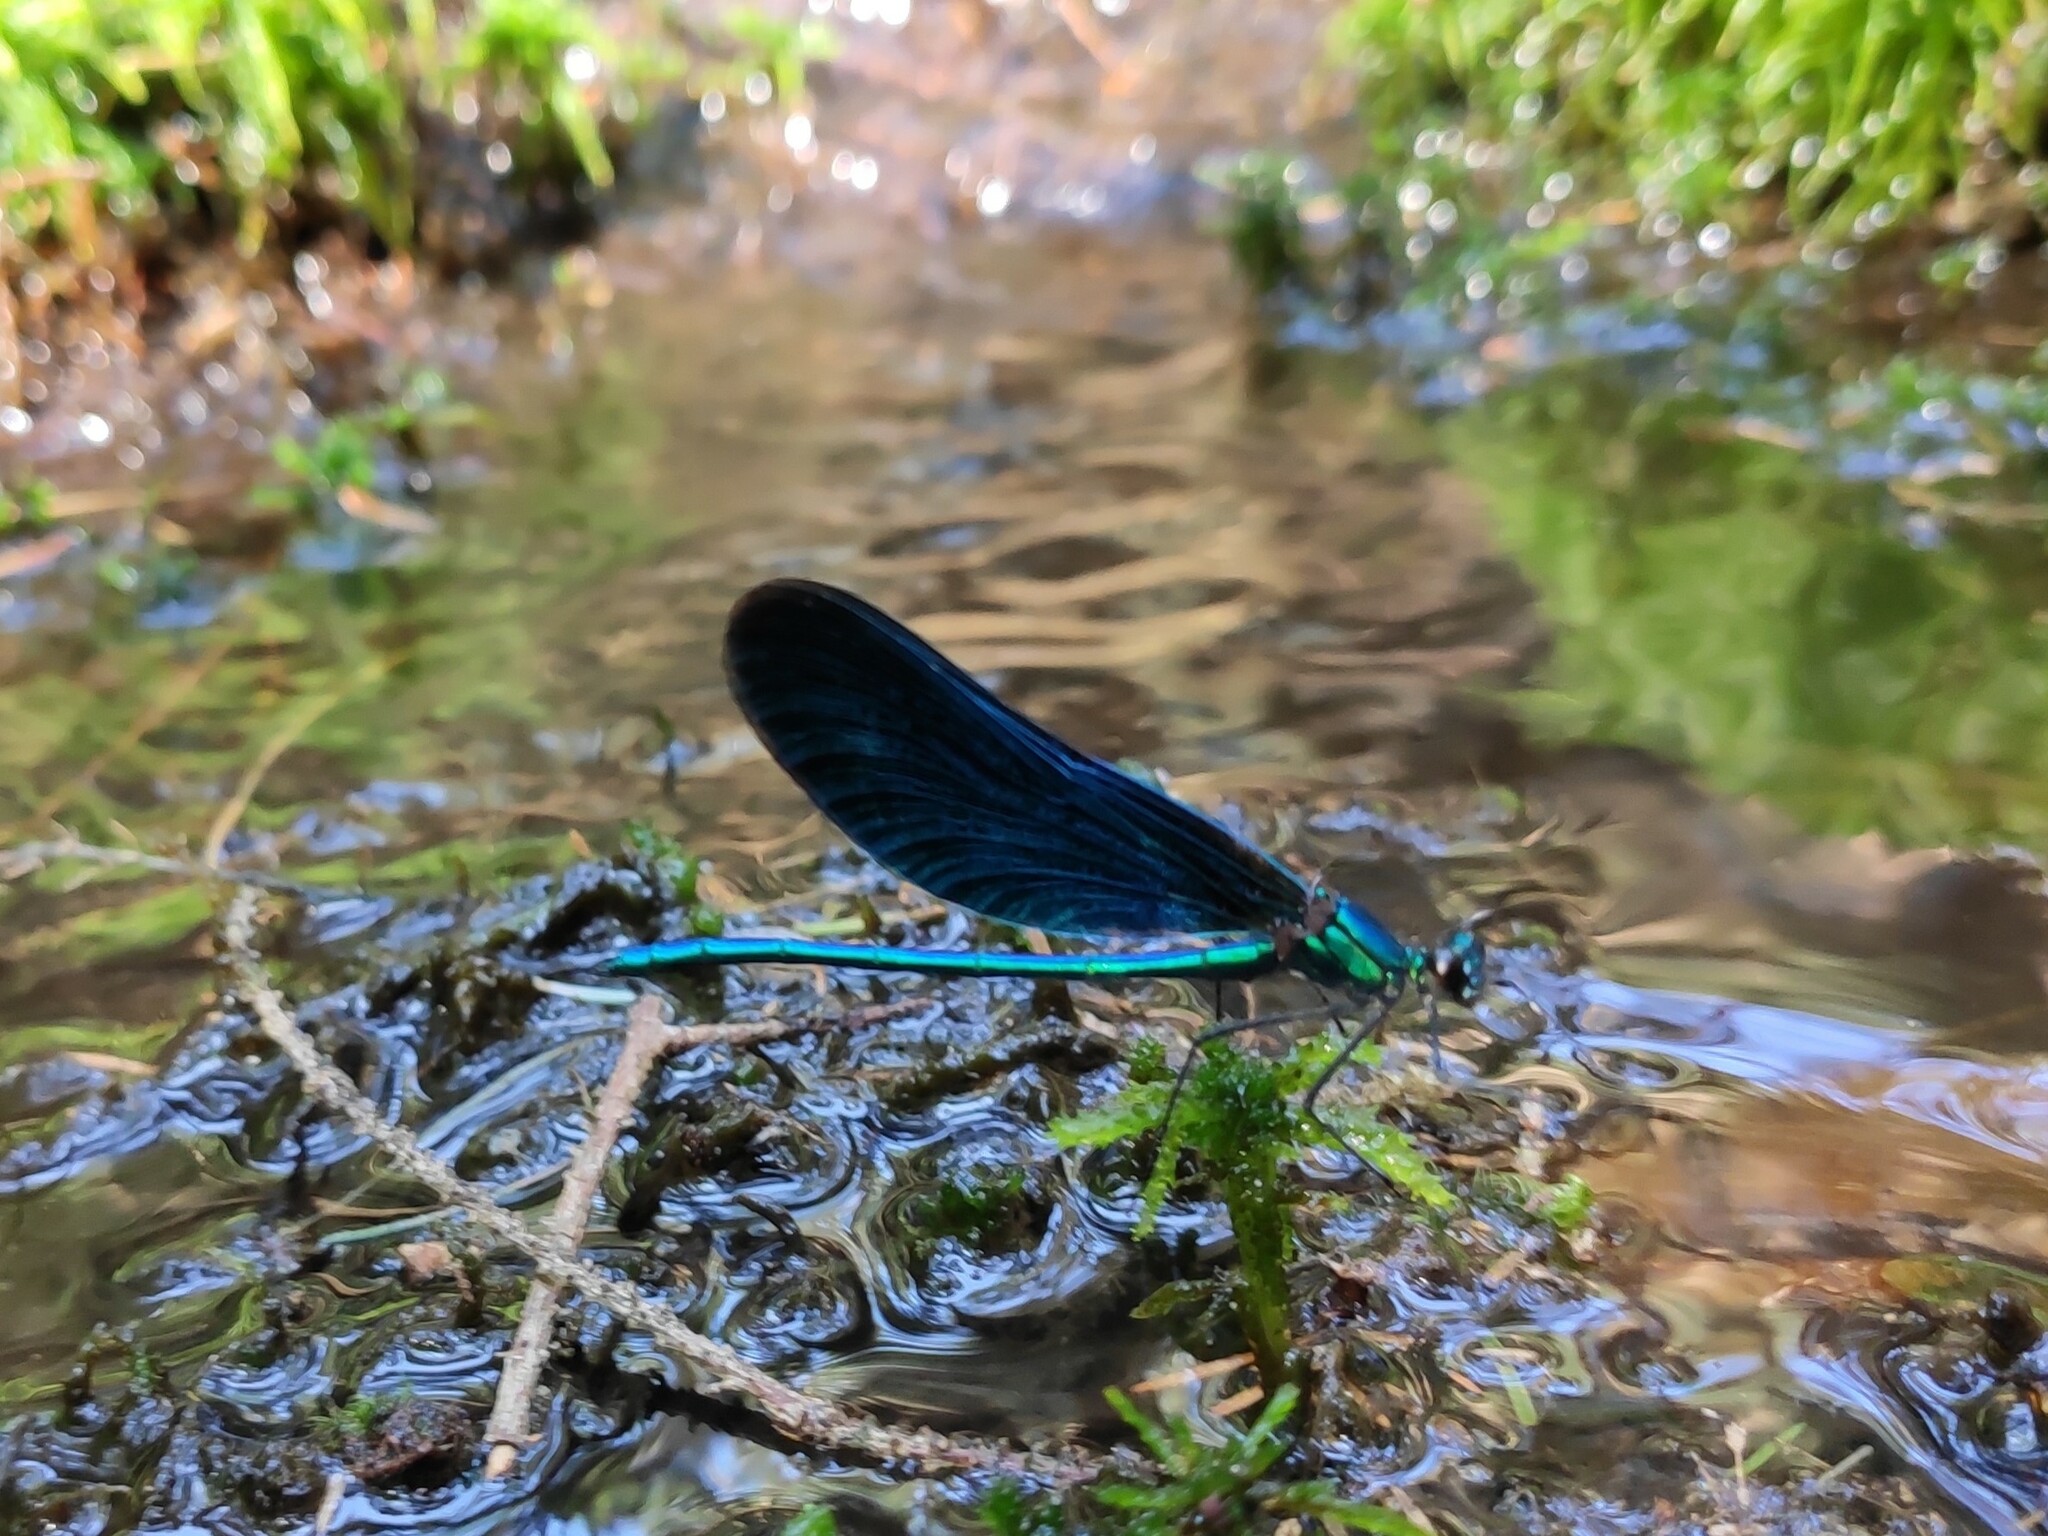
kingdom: Animalia
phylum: Arthropoda
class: Insecta
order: Odonata
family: Calopterygidae
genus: Calopteryx
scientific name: Calopteryx virgo
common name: Beautiful demoiselle
